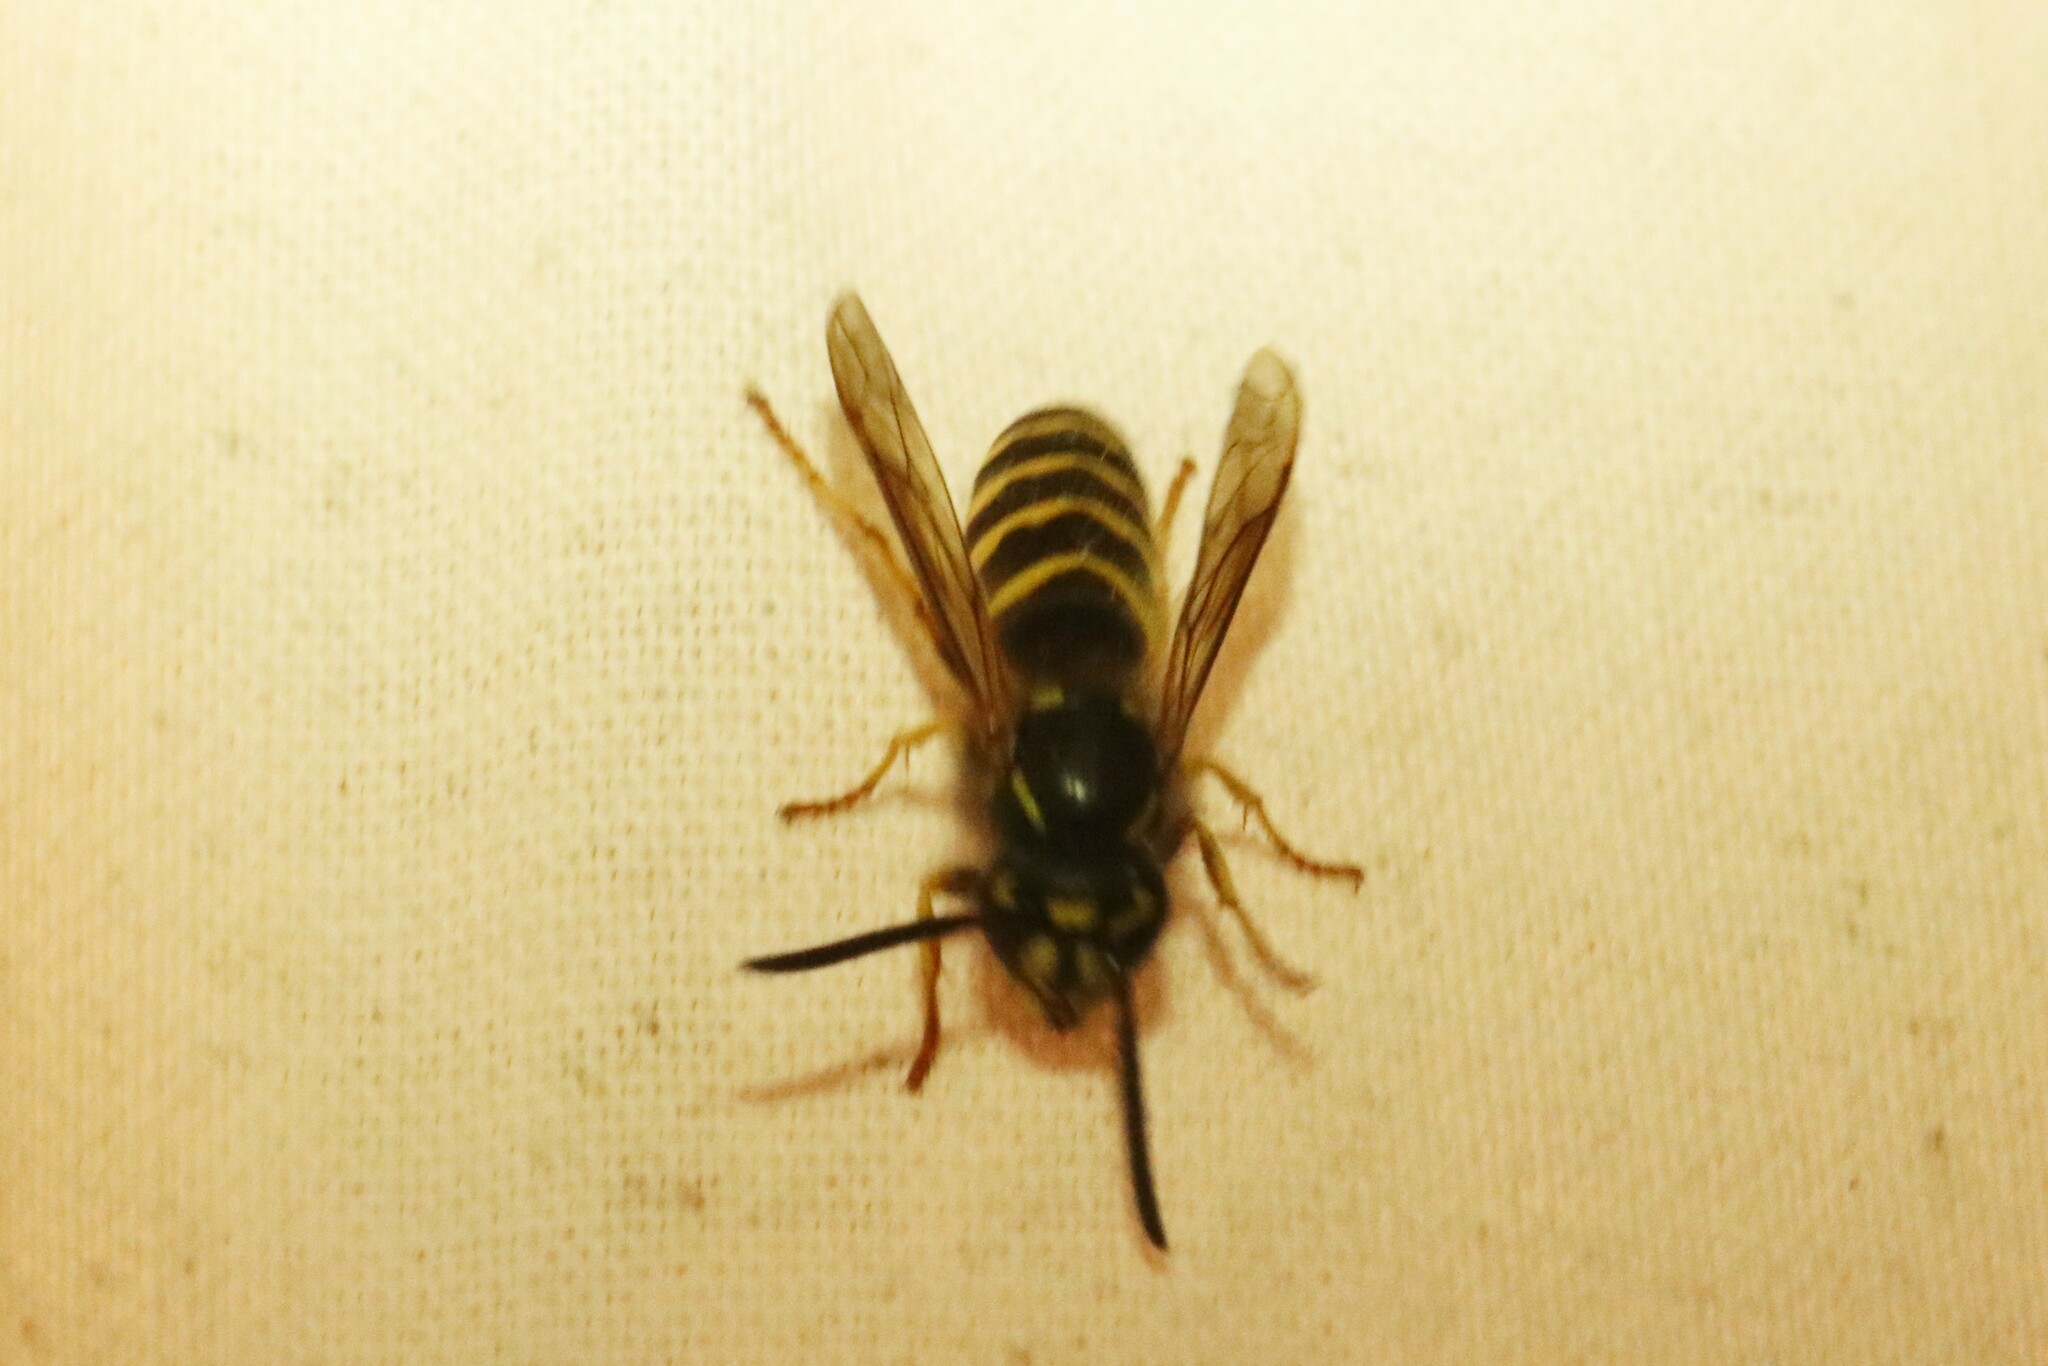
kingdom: Animalia
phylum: Arthropoda
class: Insecta
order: Hymenoptera
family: Vespidae
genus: Vespula
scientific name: Vespula alascensis
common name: Alaska yellowjacket
